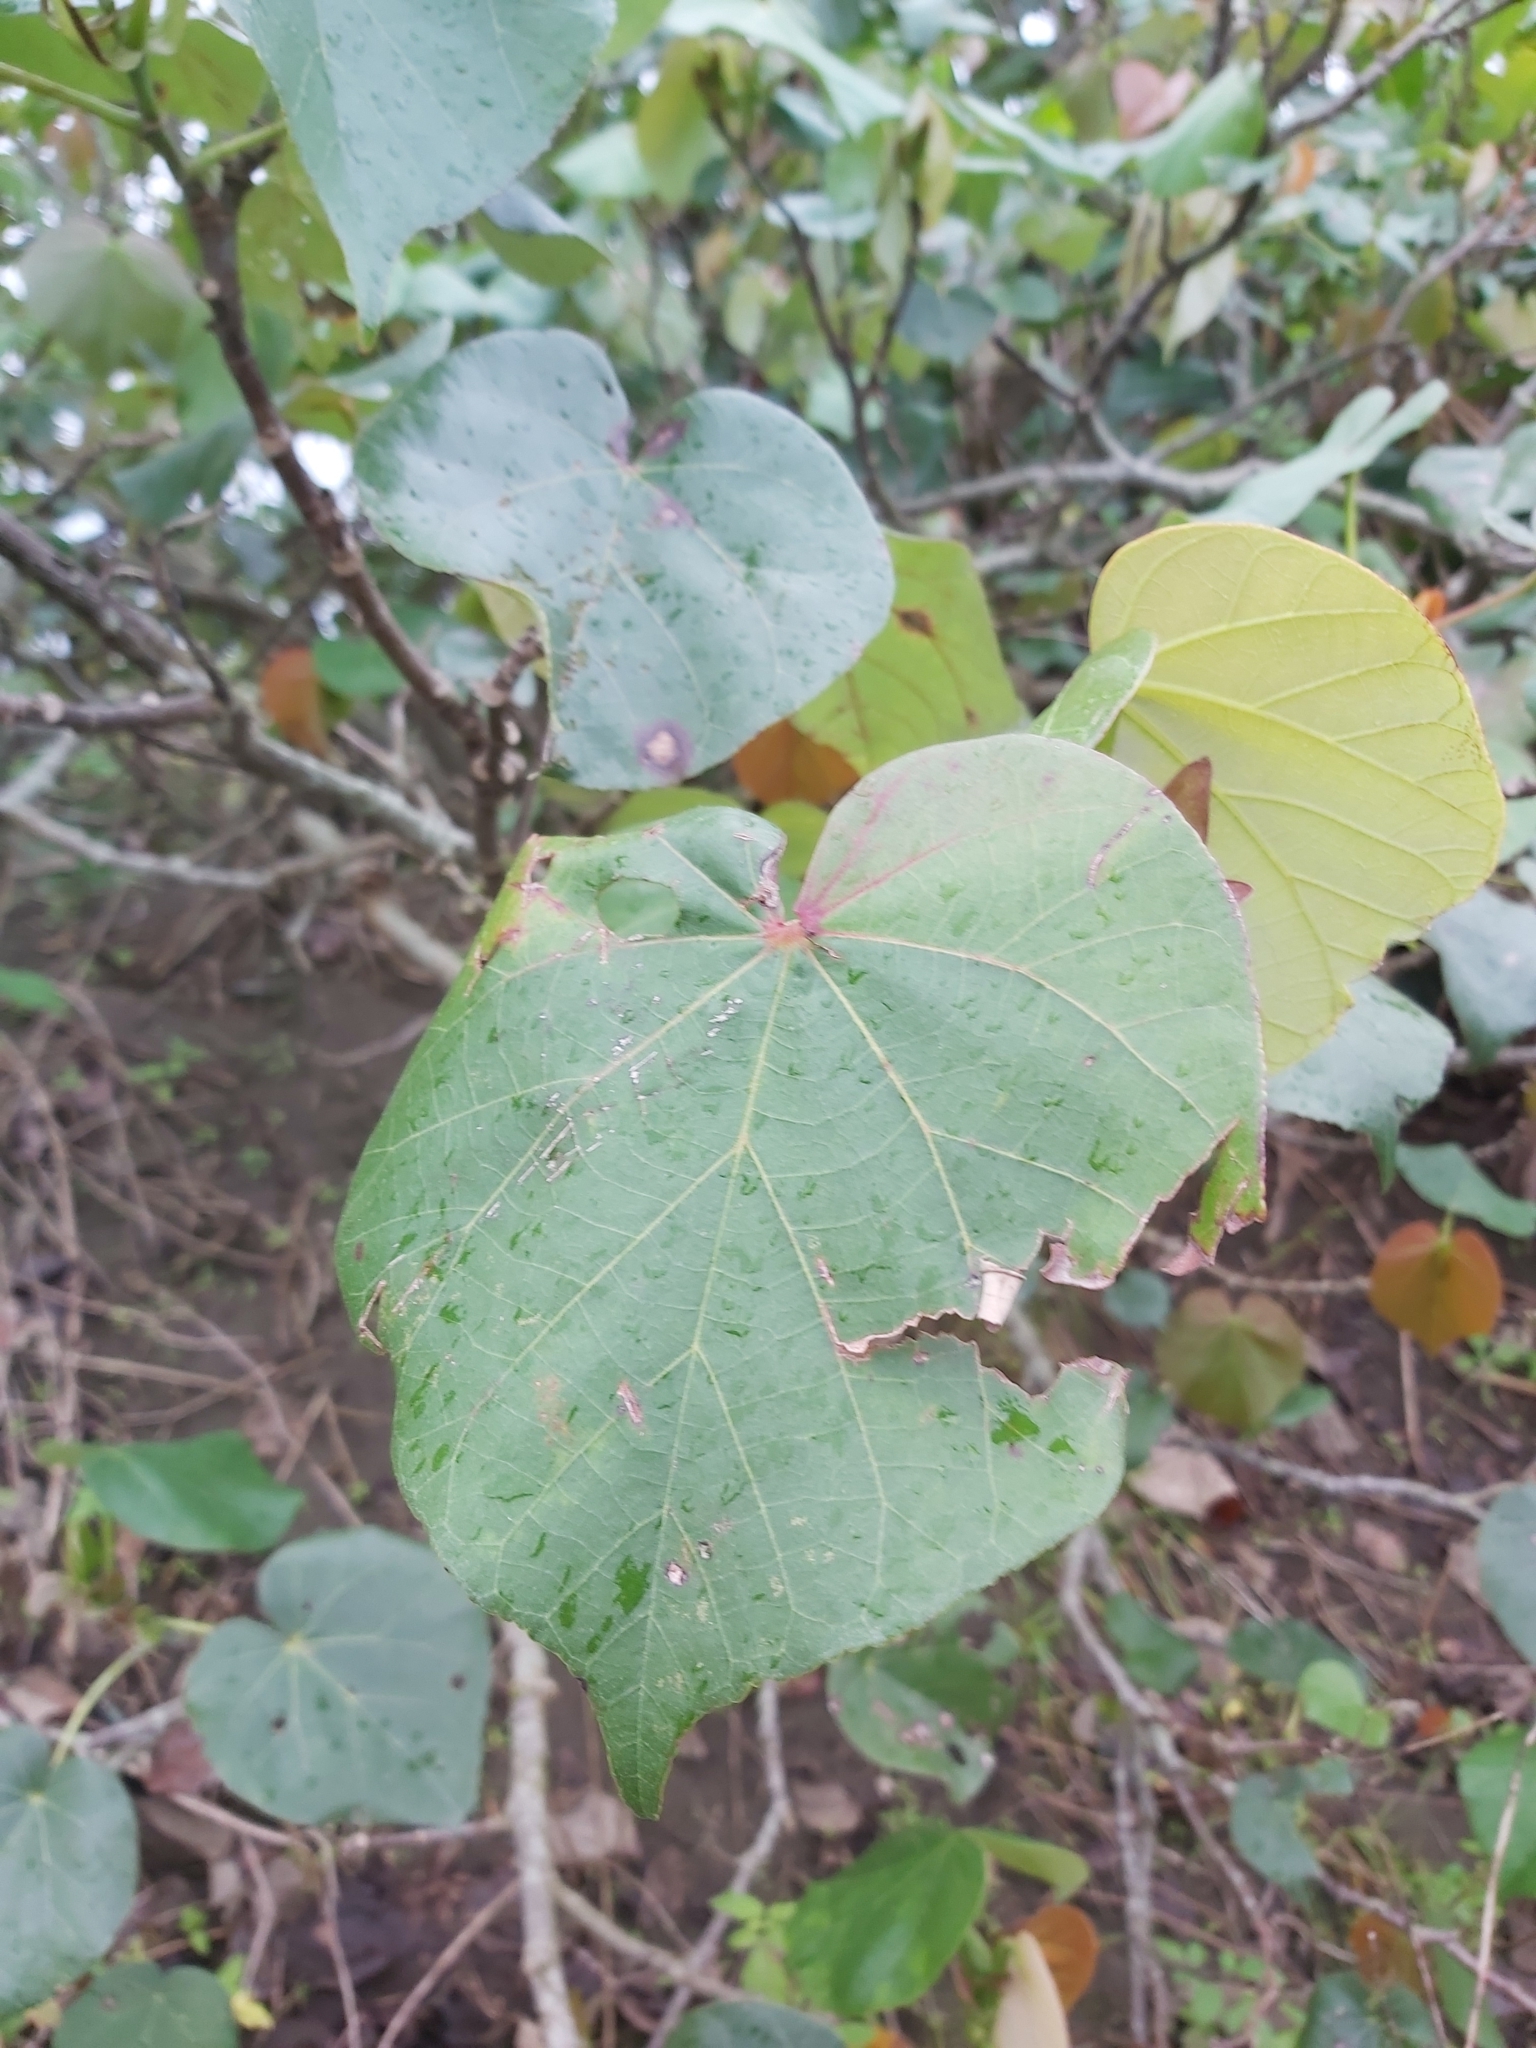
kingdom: Plantae
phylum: Tracheophyta
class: Magnoliopsida
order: Malvales
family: Malvaceae
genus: Talipariti
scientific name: Talipariti tiliaceum
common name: Sea hibiscus
